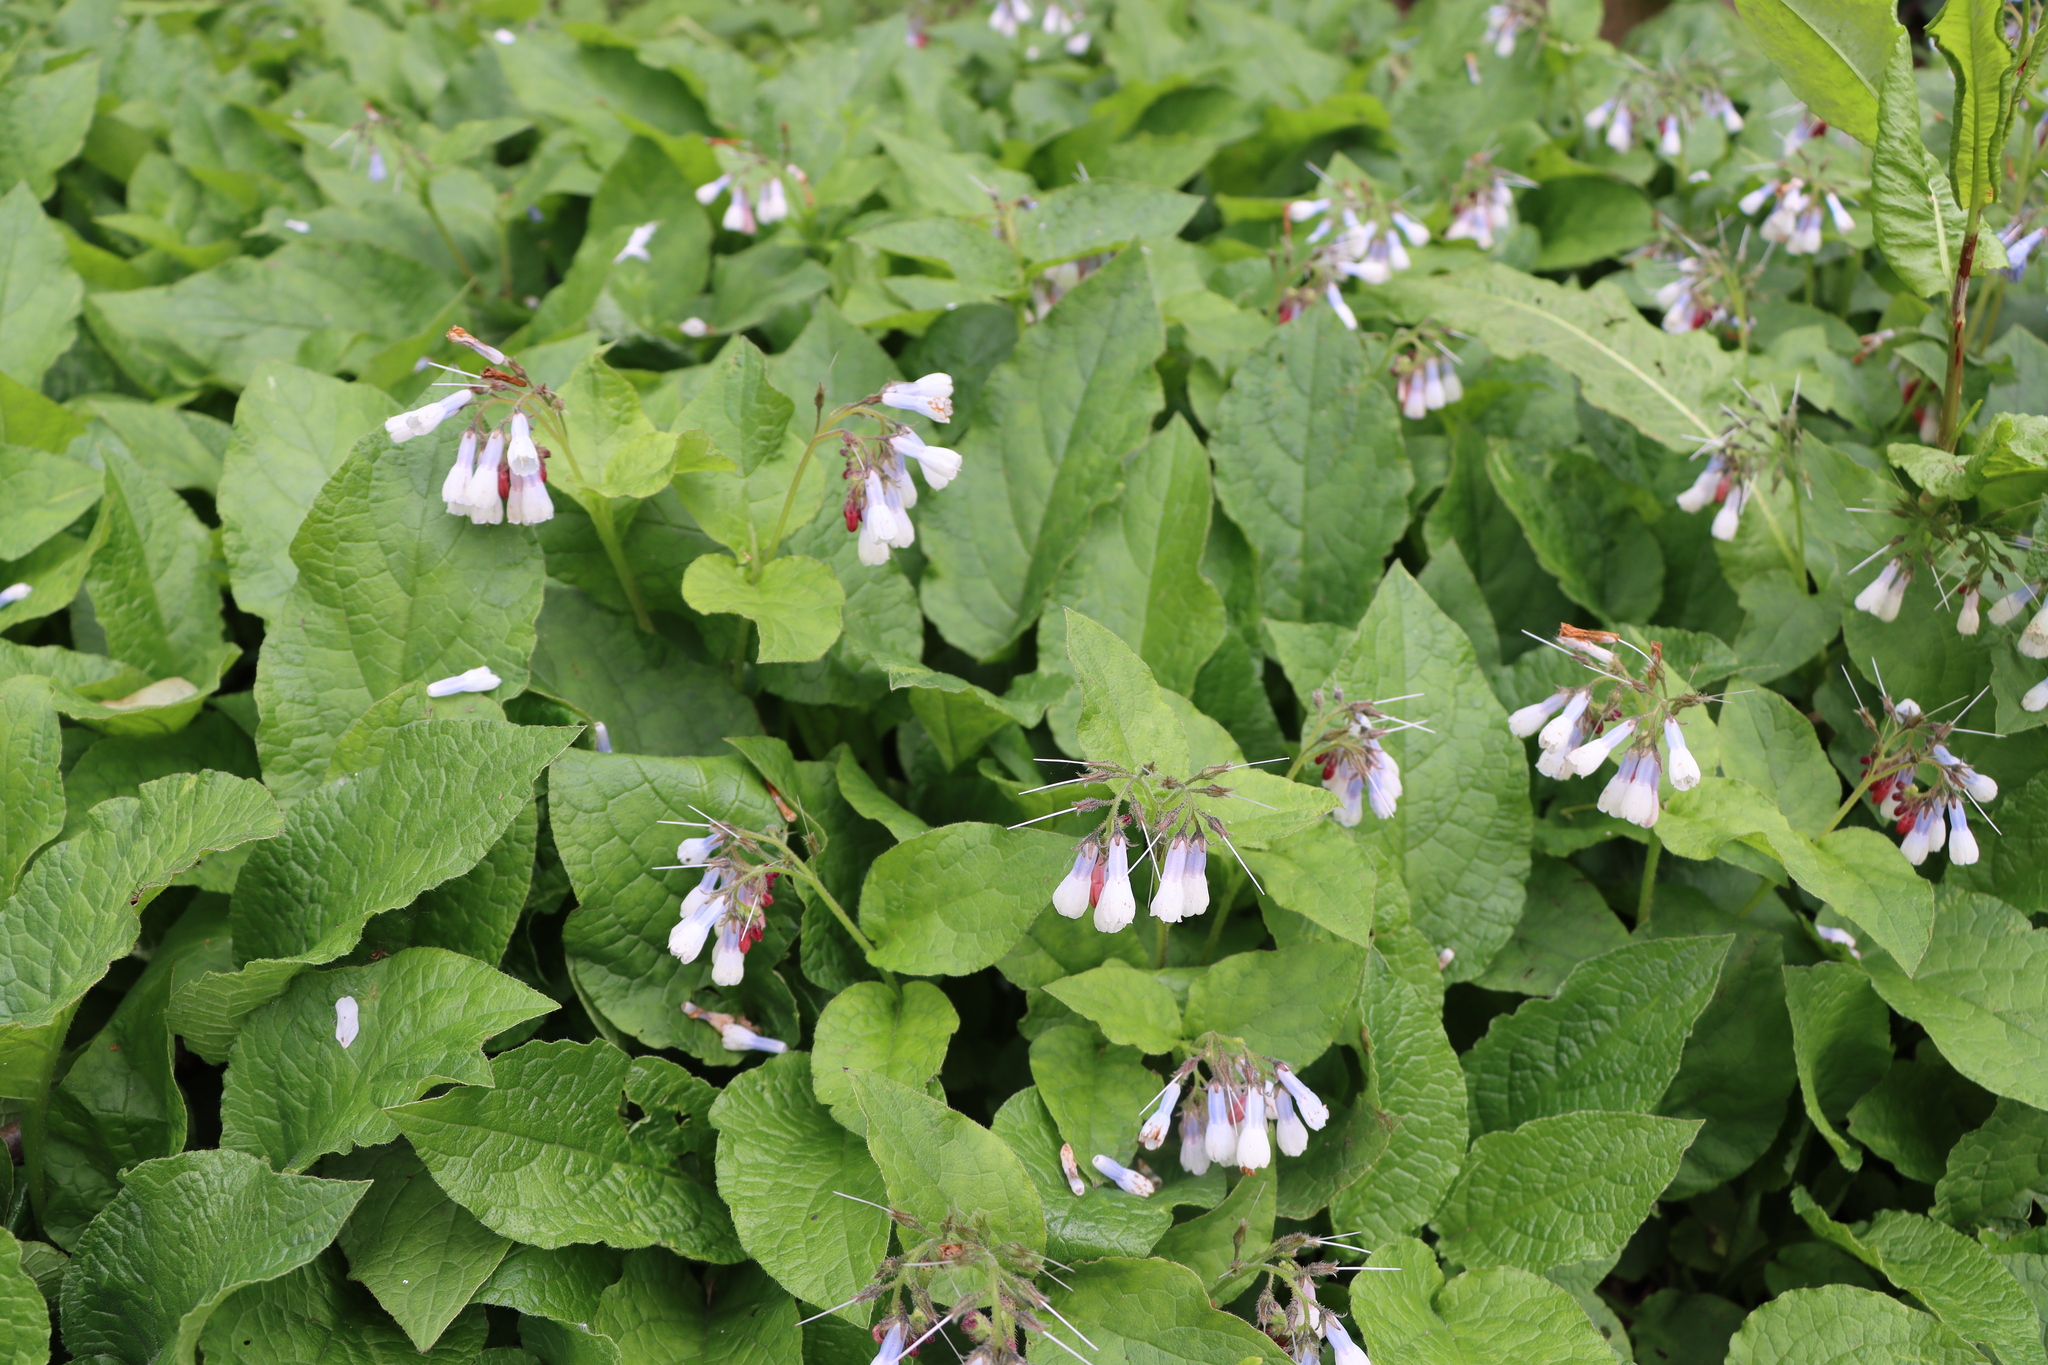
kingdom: Plantae
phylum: Tracheophyta
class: Magnoliopsida
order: Boraginales
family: Boraginaceae
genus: Symphytum
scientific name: Symphytum hidcotense
